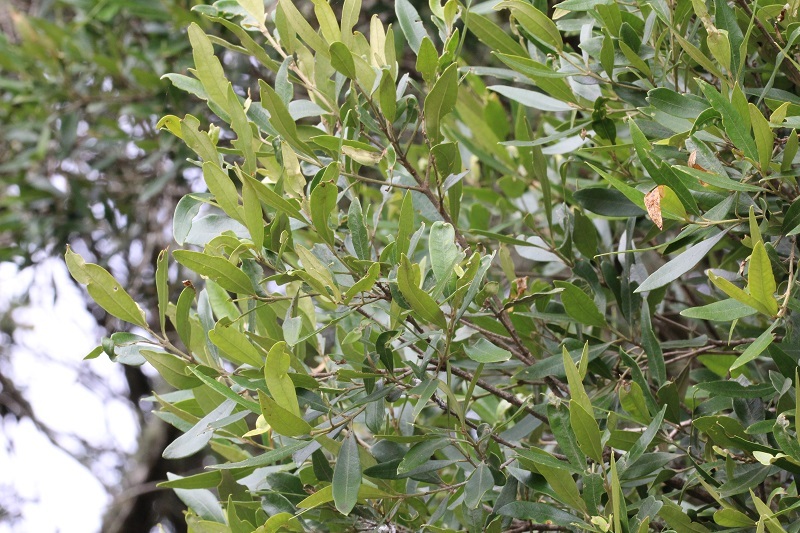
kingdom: Plantae
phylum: Tracheophyta
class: Magnoliopsida
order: Lamiales
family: Oleaceae
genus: Olea
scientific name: Olea europaea
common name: Olive
